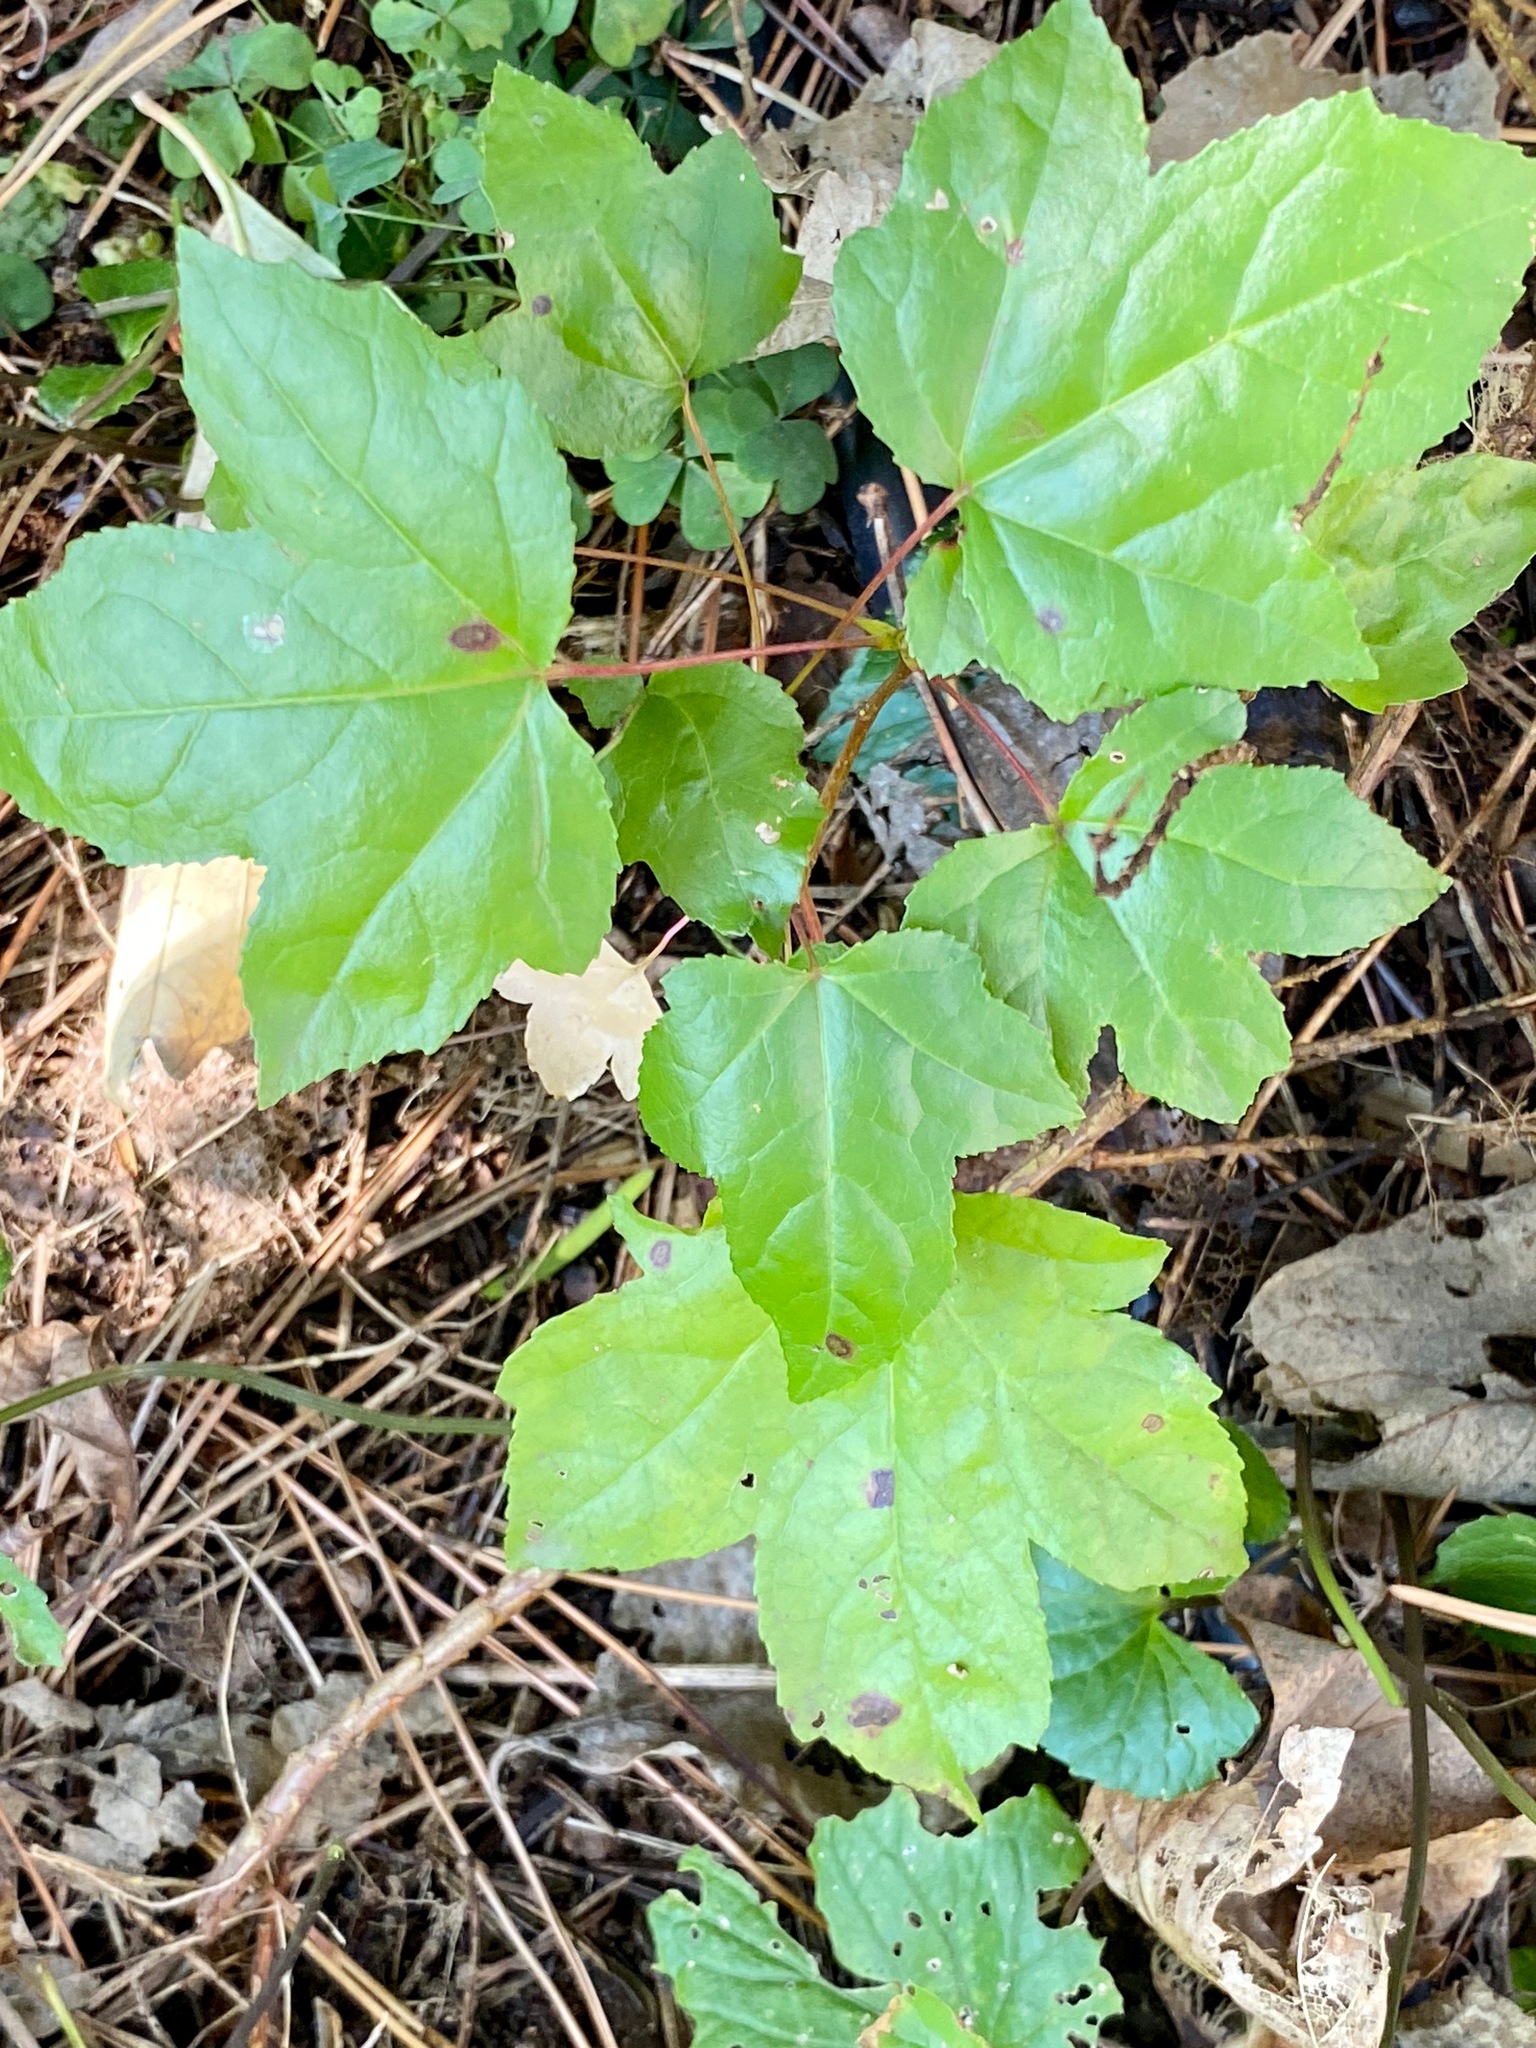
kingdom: Plantae
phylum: Tracheophyta
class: Magnoliopsida
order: Saxifragales
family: Altingiaceae
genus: Liquidambar
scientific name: Liquidambar styraciflua
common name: Sweet gum
